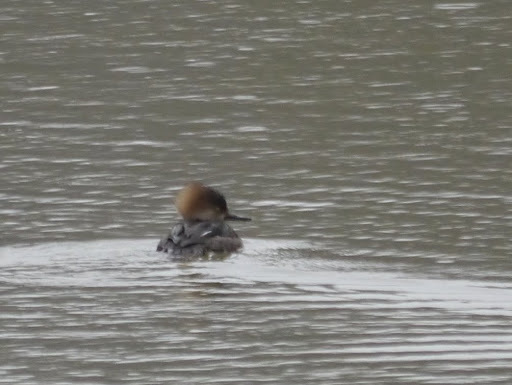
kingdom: Animalia
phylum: Chordata
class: Aves
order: Anseriformes
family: Anatidae
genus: Lophodytes
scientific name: Lophodytes cucullatus
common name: Hooded merganser
